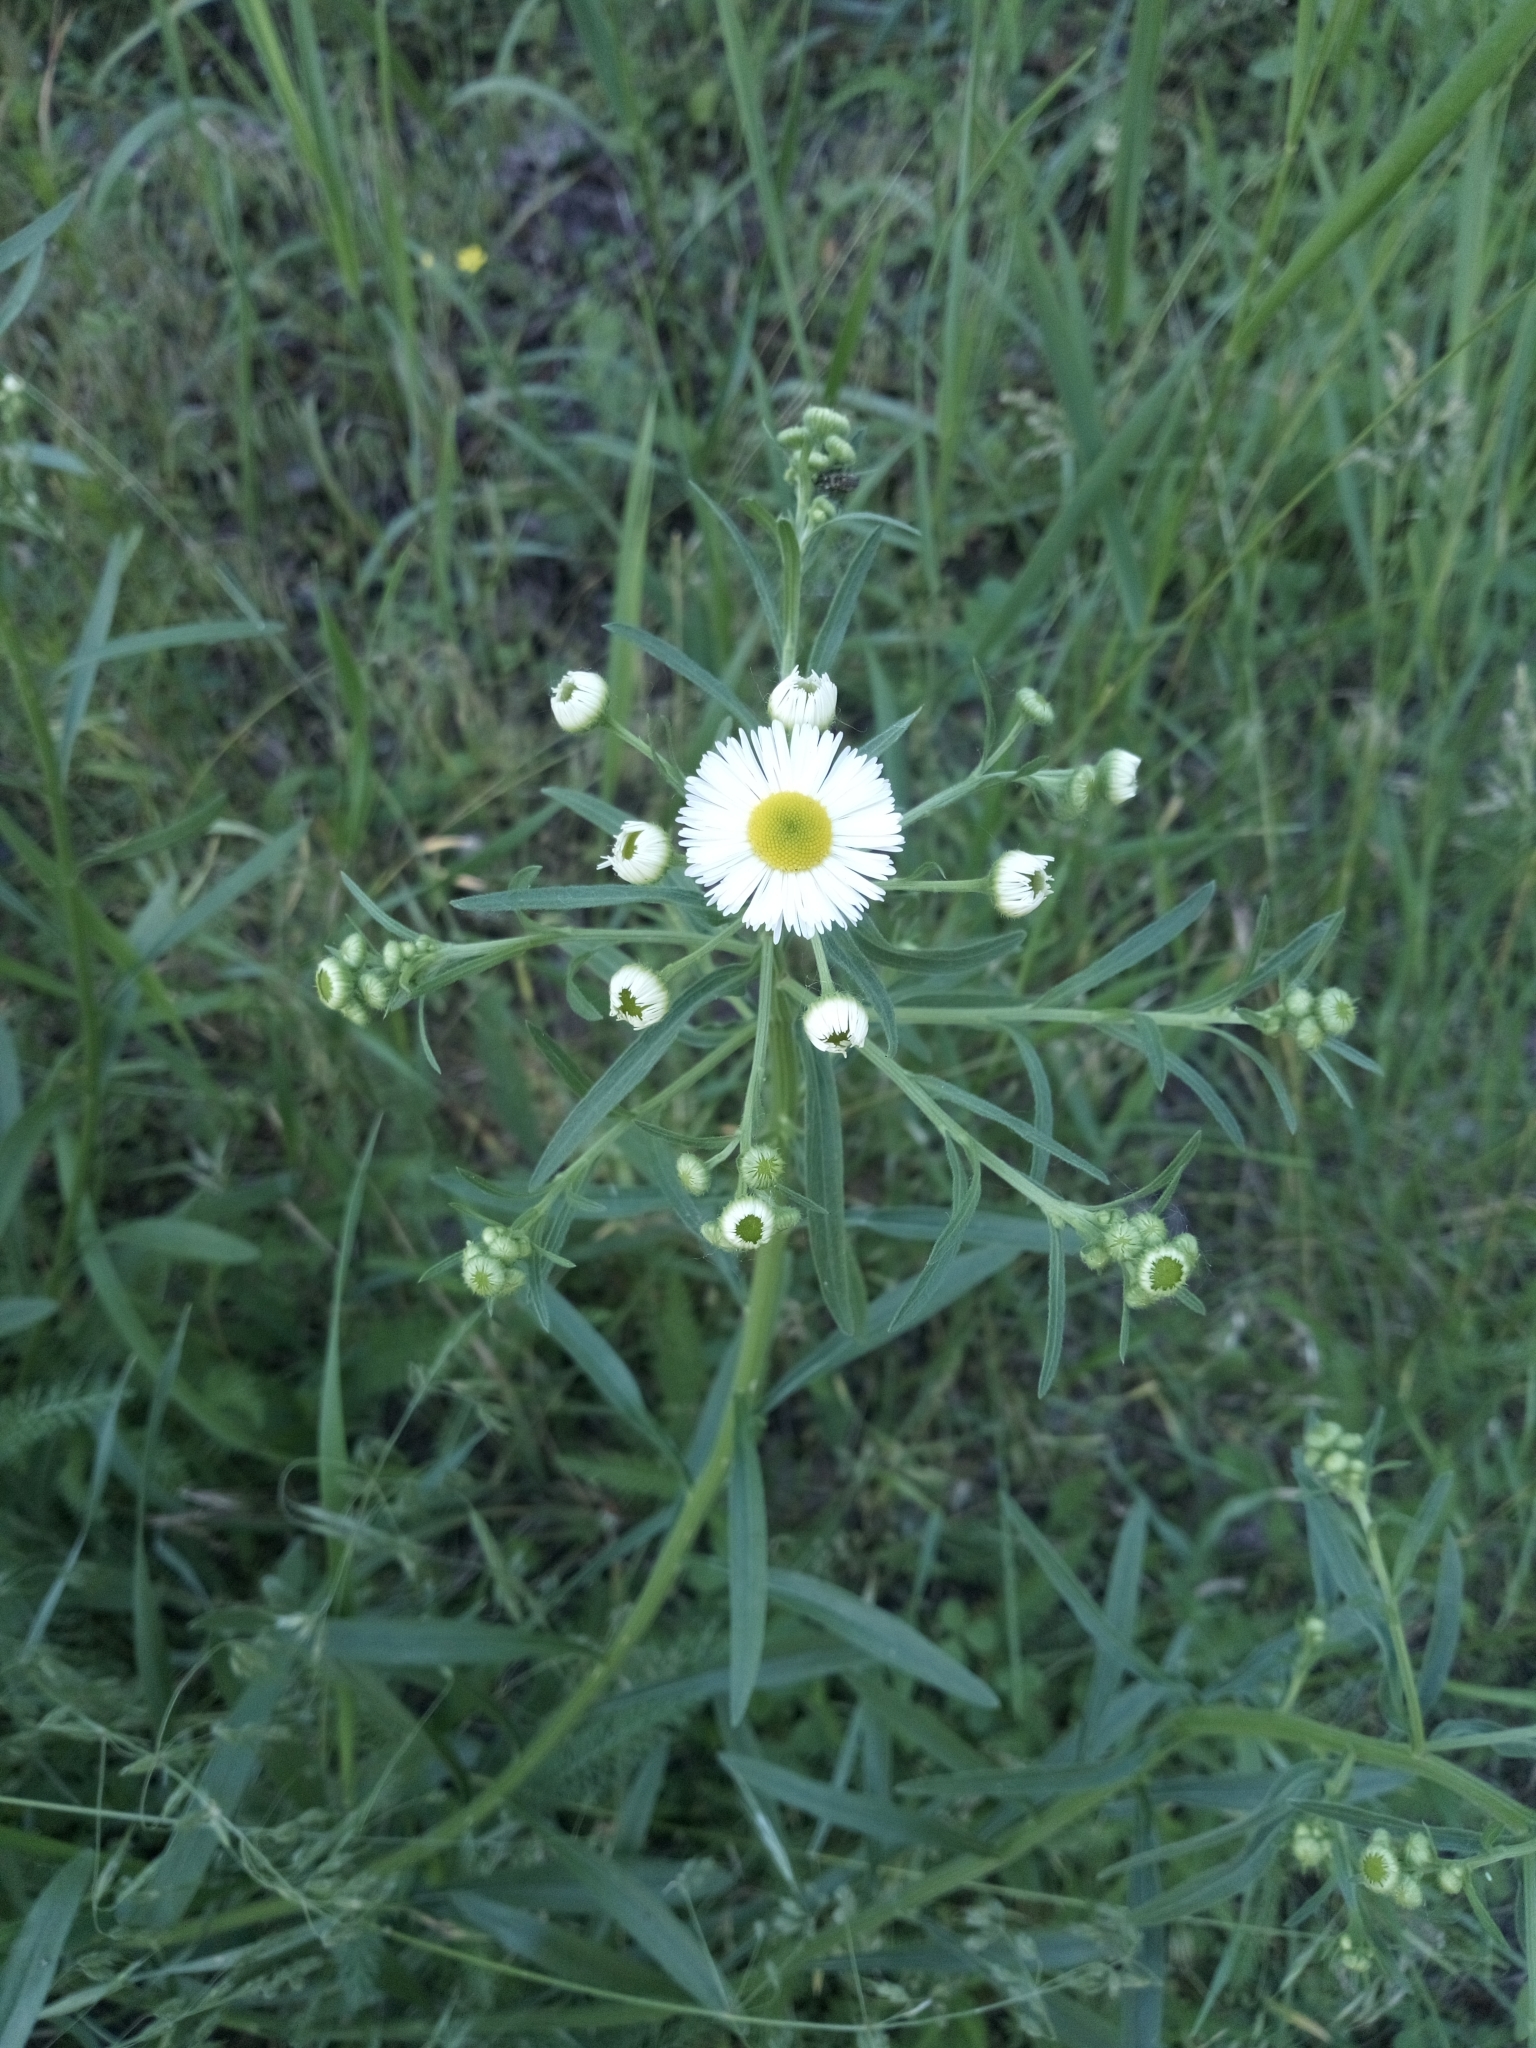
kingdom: Plantae
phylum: Tracheophyta
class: Magnoliopsida
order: Asterales
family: Asteraceae
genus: Erigeron
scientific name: Erigeron strigosus
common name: Common eastern fleabane
